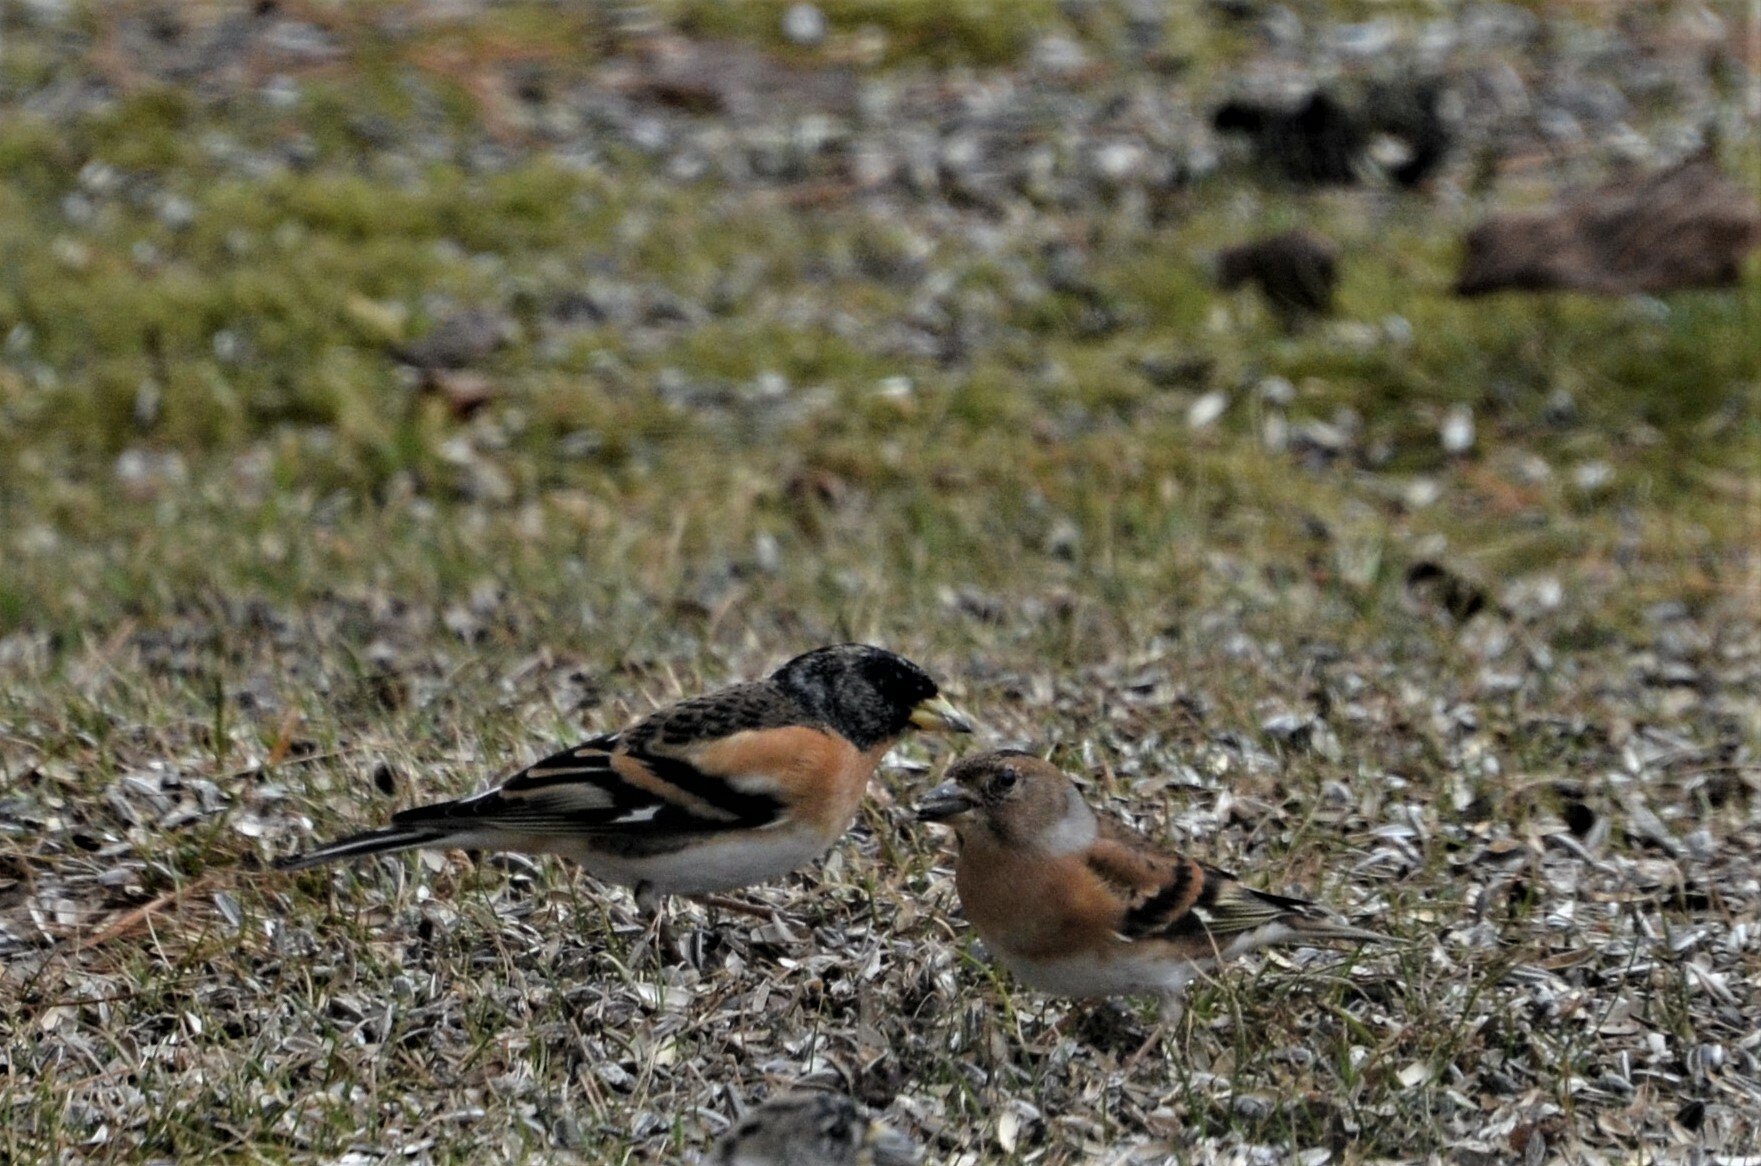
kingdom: Animalia
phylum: Chordata
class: Aves
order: Passeriformes
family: Fringillidae
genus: Fringilla
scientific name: Fringilla montifringilla
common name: Brambling
